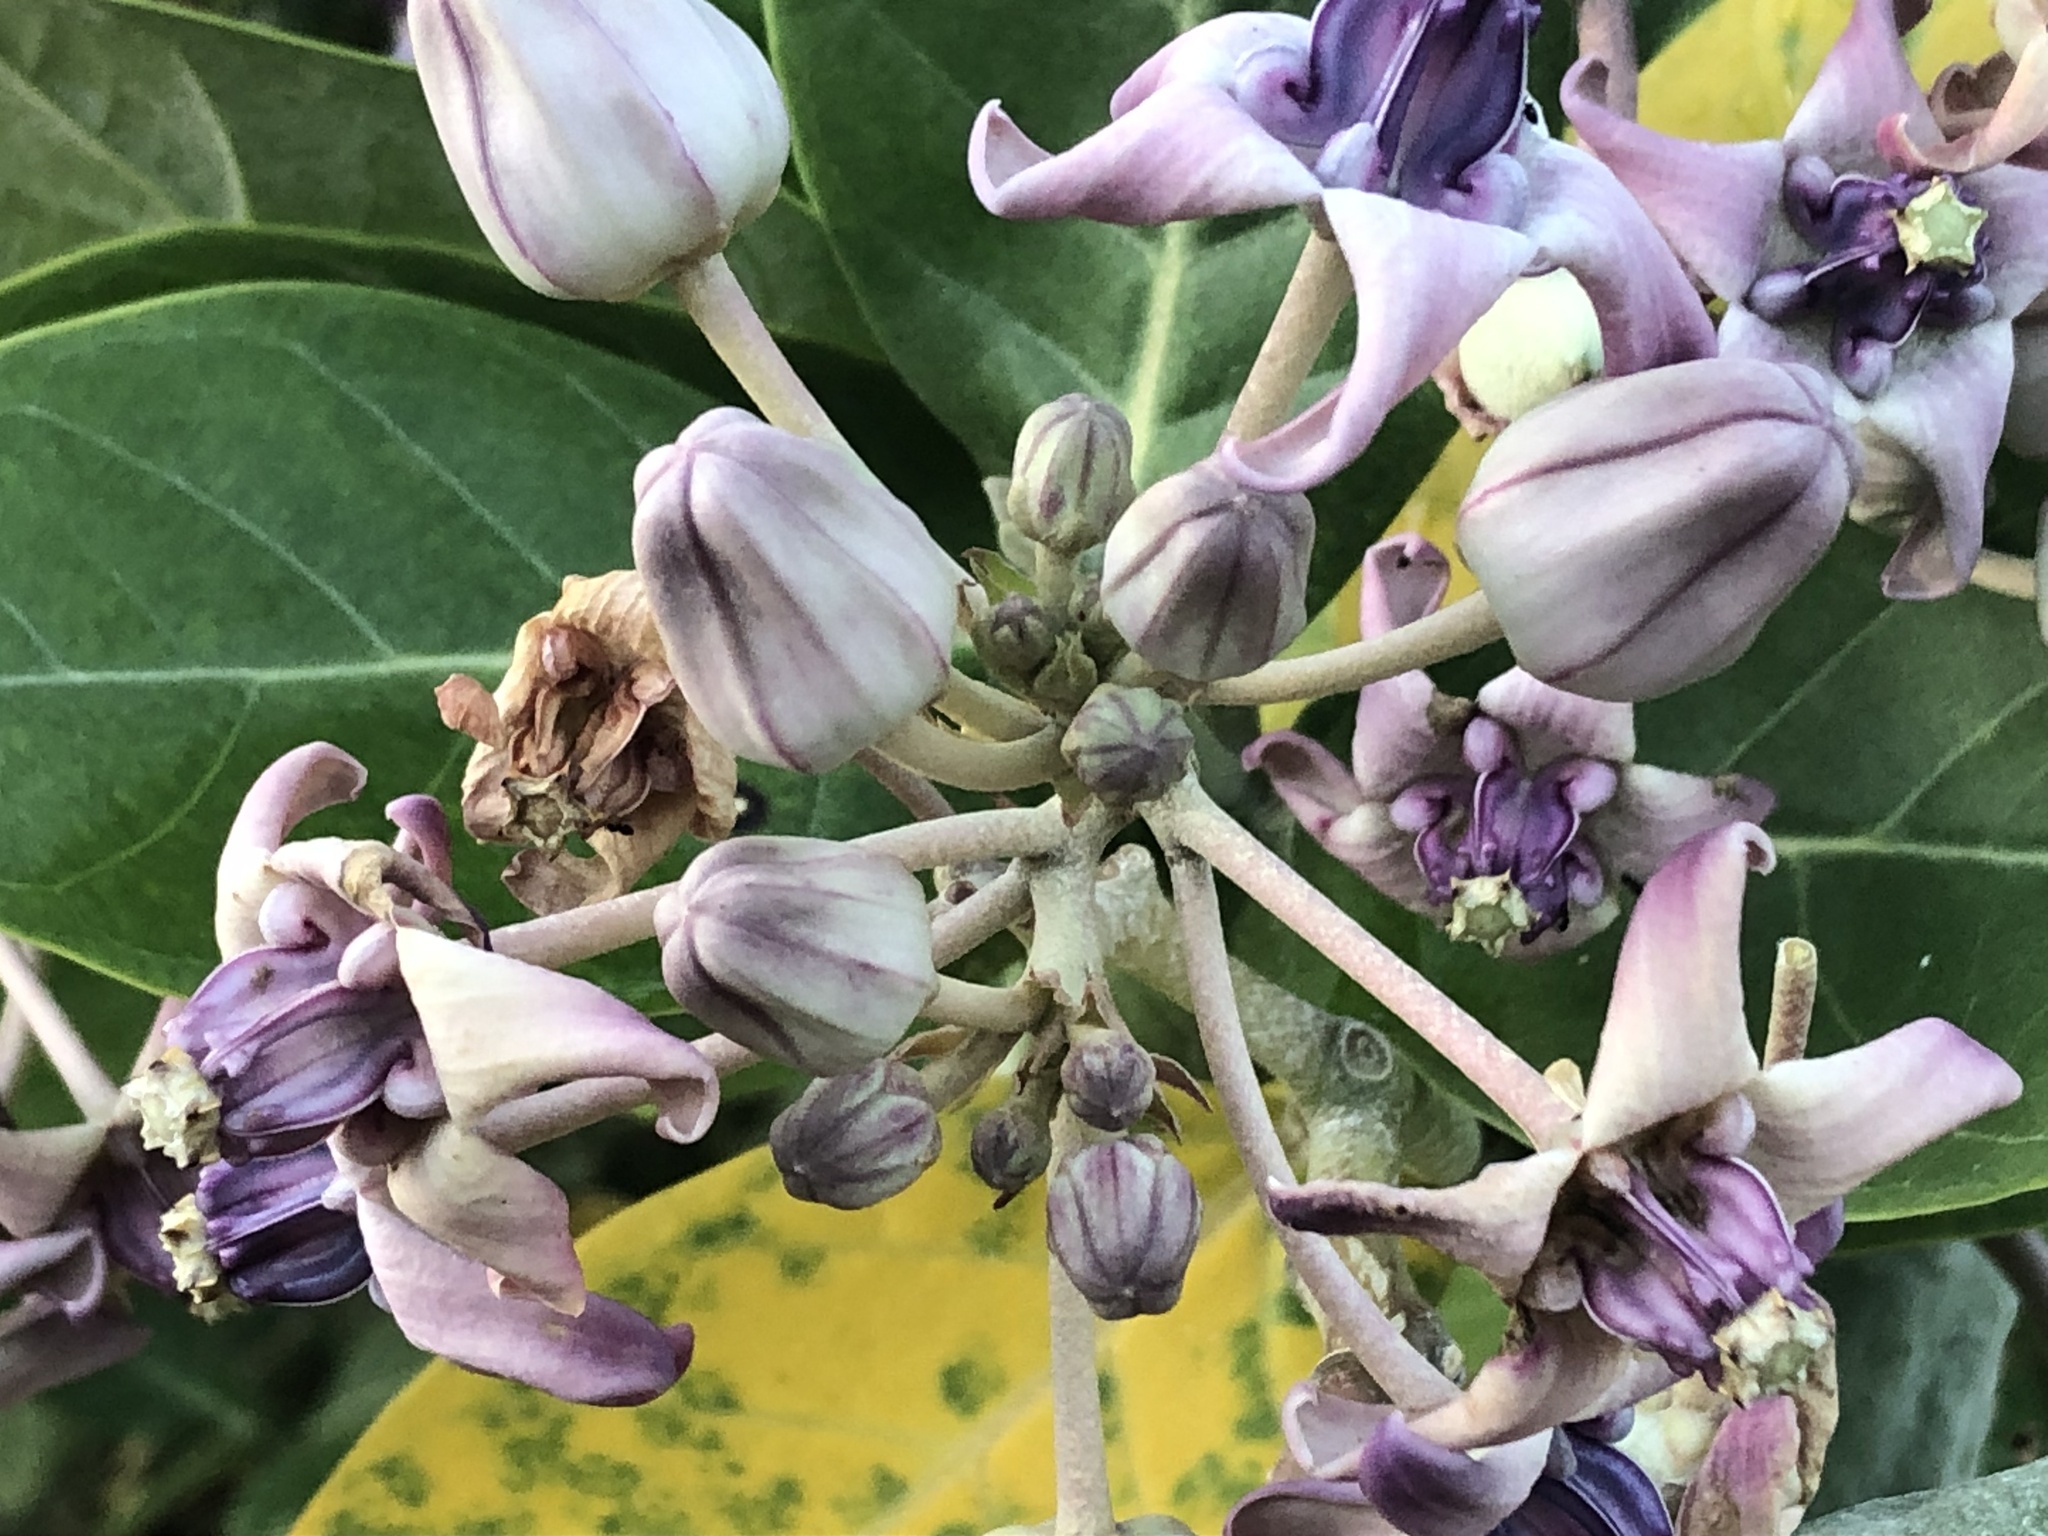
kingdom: Plantae
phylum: Tracheophyta
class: Magnoliopsida
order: Gentianales
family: Apocynaceae
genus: Calotropis
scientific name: Calotropis gigantea
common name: Crown flower
